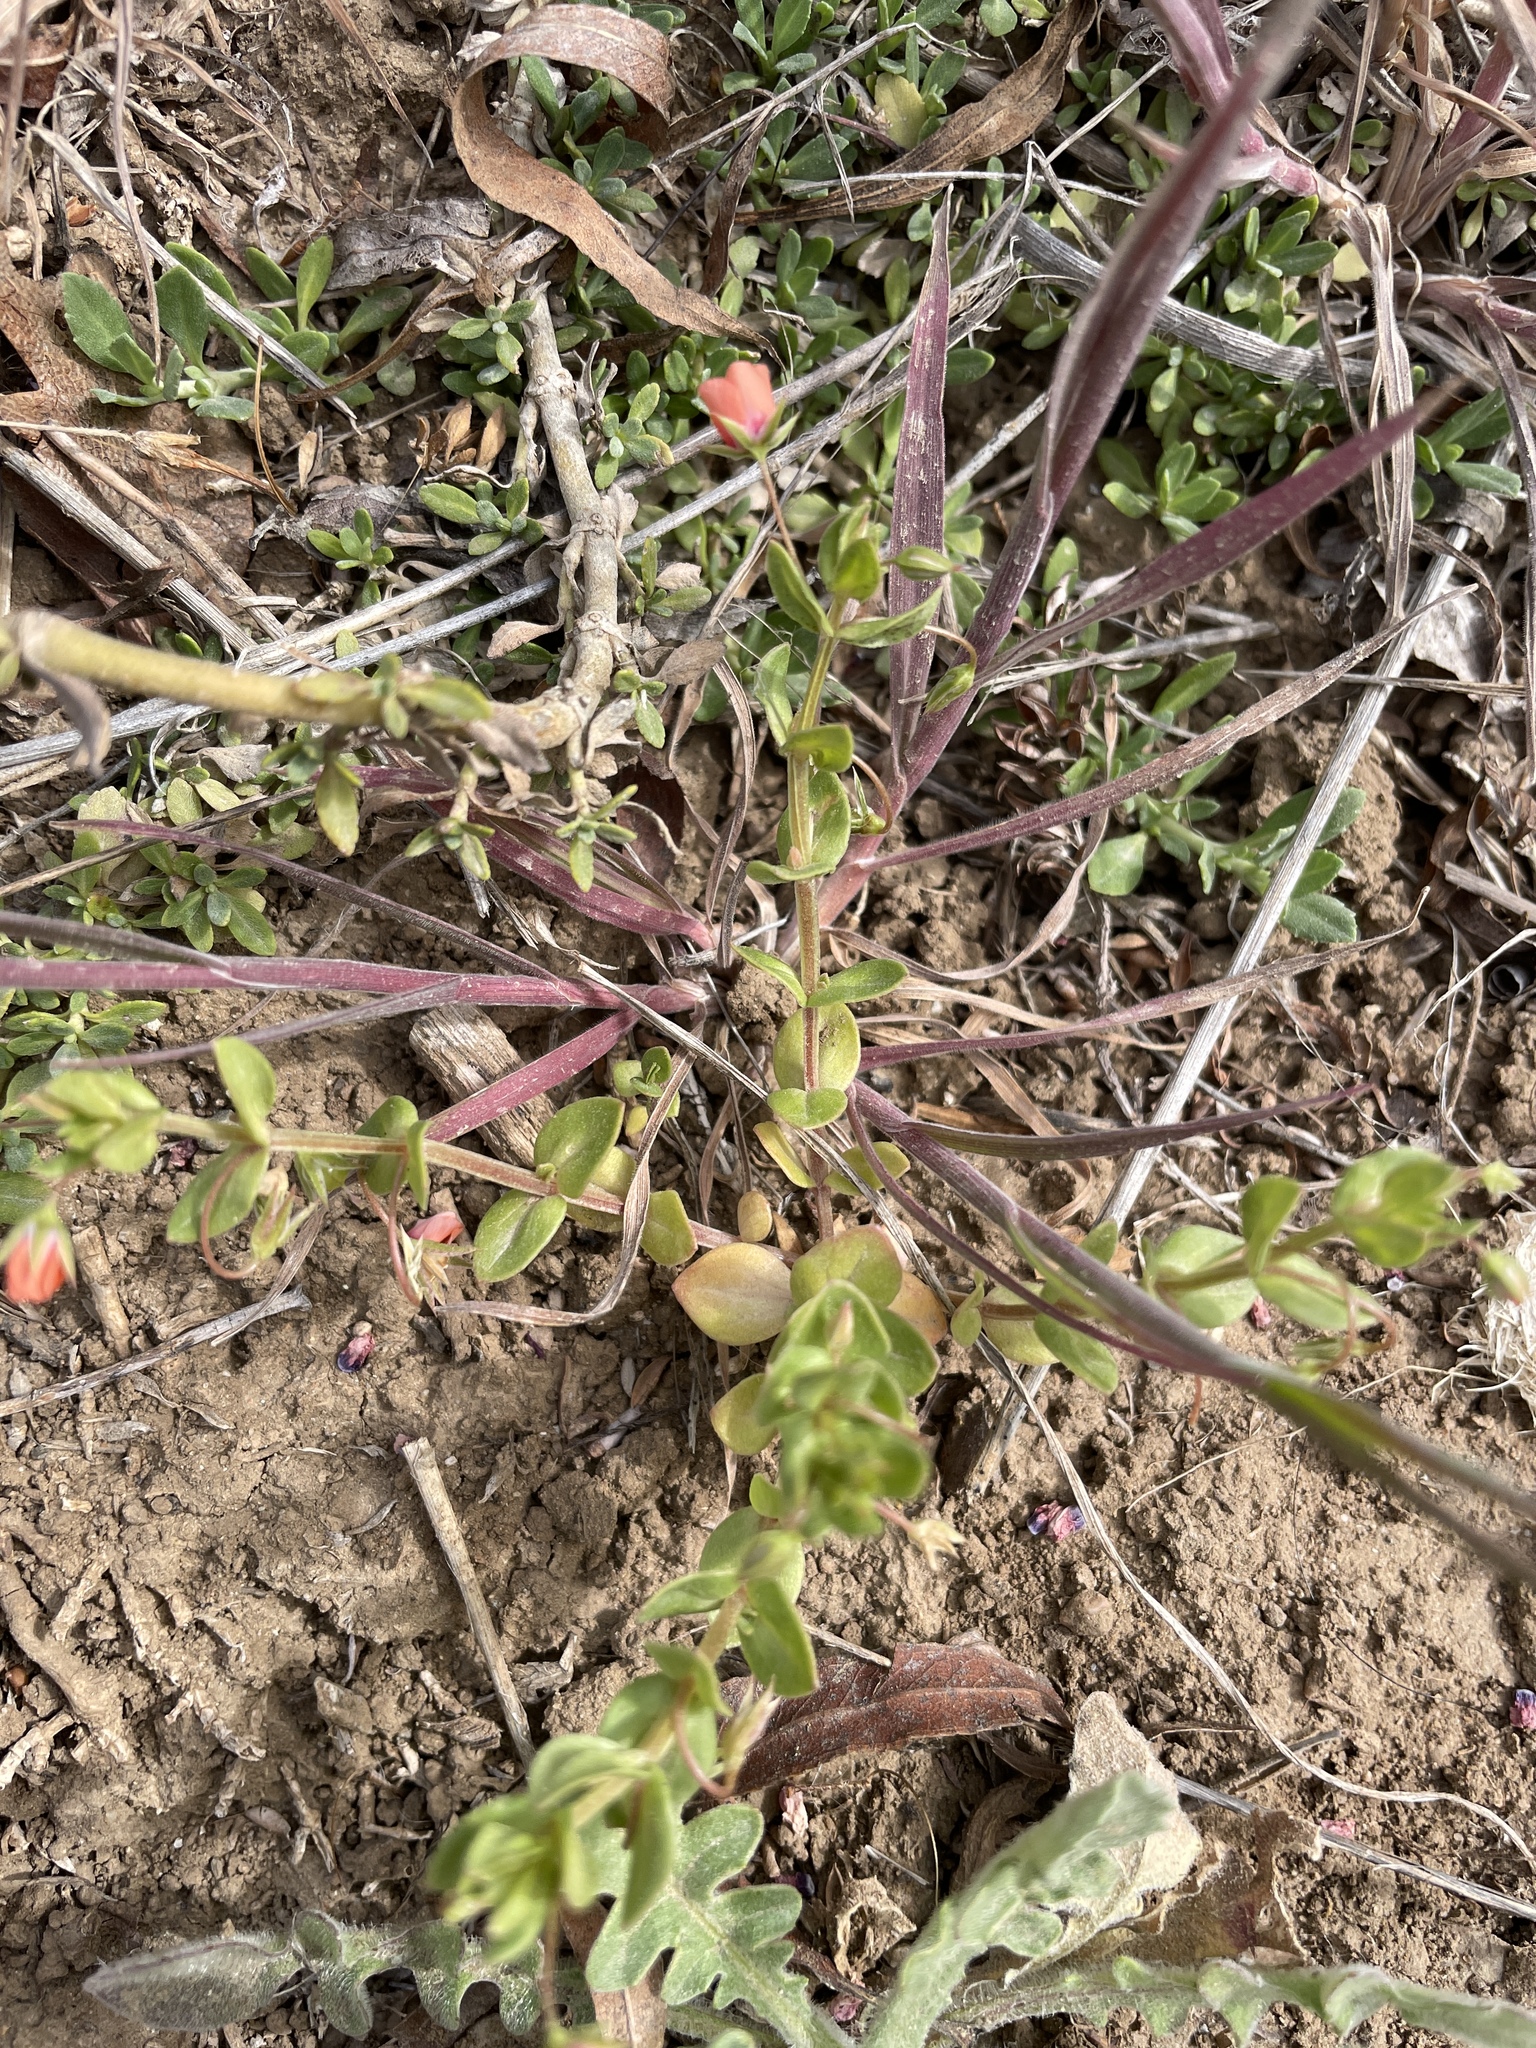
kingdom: Plantae
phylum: Tracheophyta
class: Magnoliopsida
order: Ericales
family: Primulaceae
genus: Lysimachia
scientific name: Lysimachia arvensis
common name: Scarlet pimpernel
